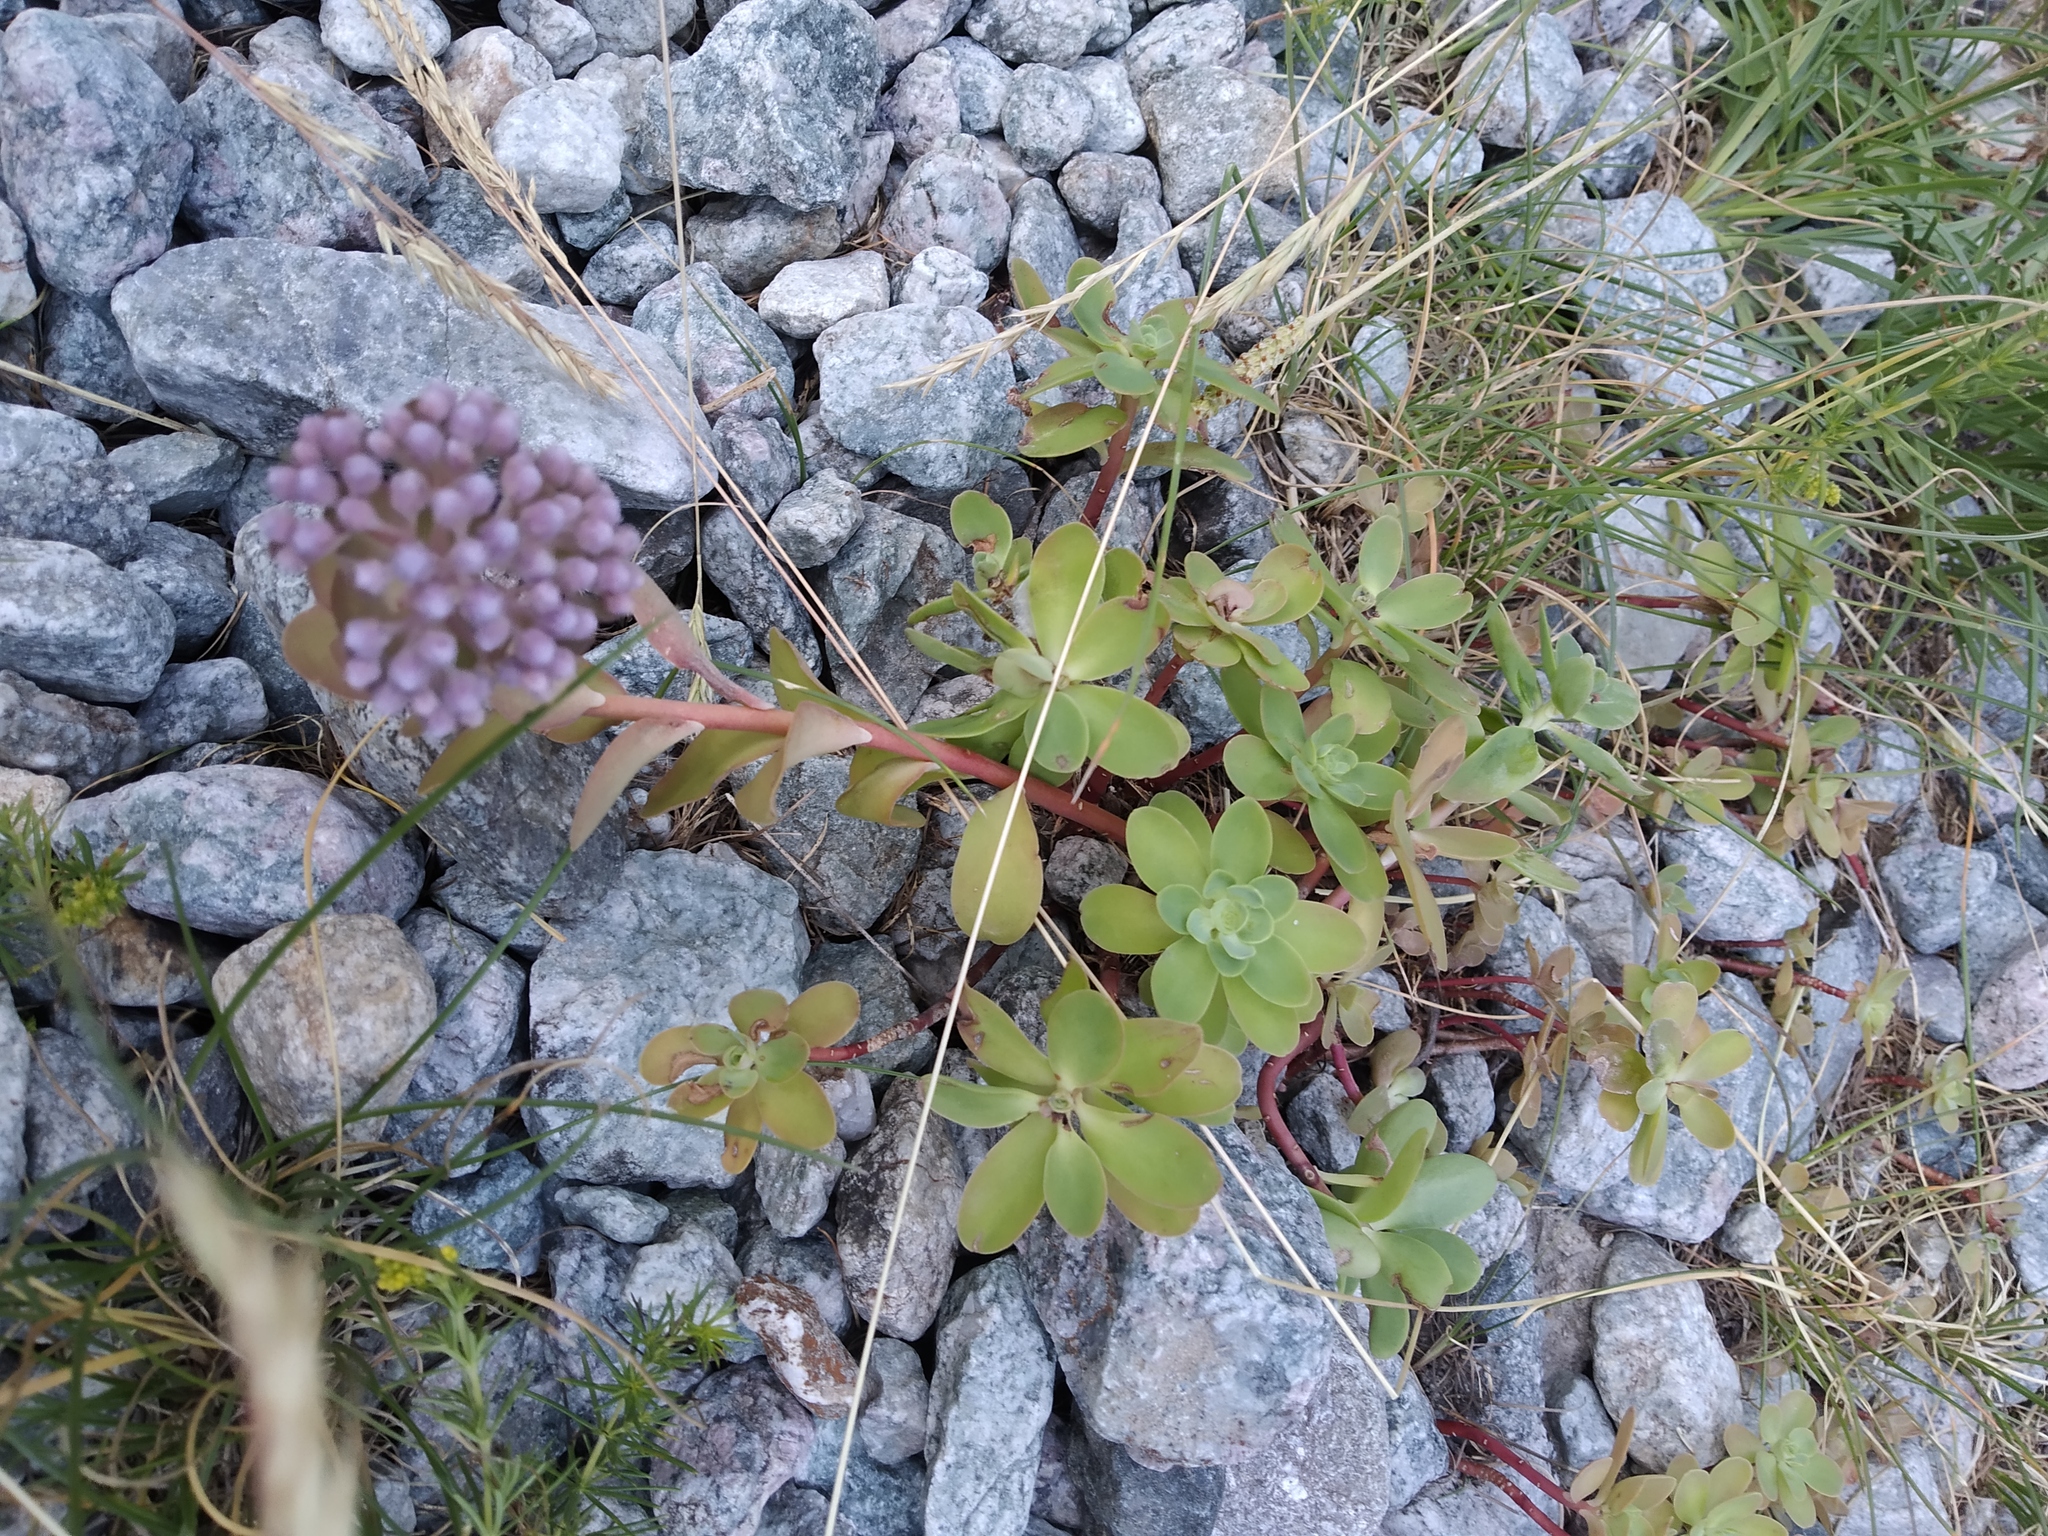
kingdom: Plantae
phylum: Tracheophyta
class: Magnoliopsida
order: Saxifragales
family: Crassulaceae
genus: Hylotelephium
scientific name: Hylotelephium anacampseros
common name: Love-restorer
